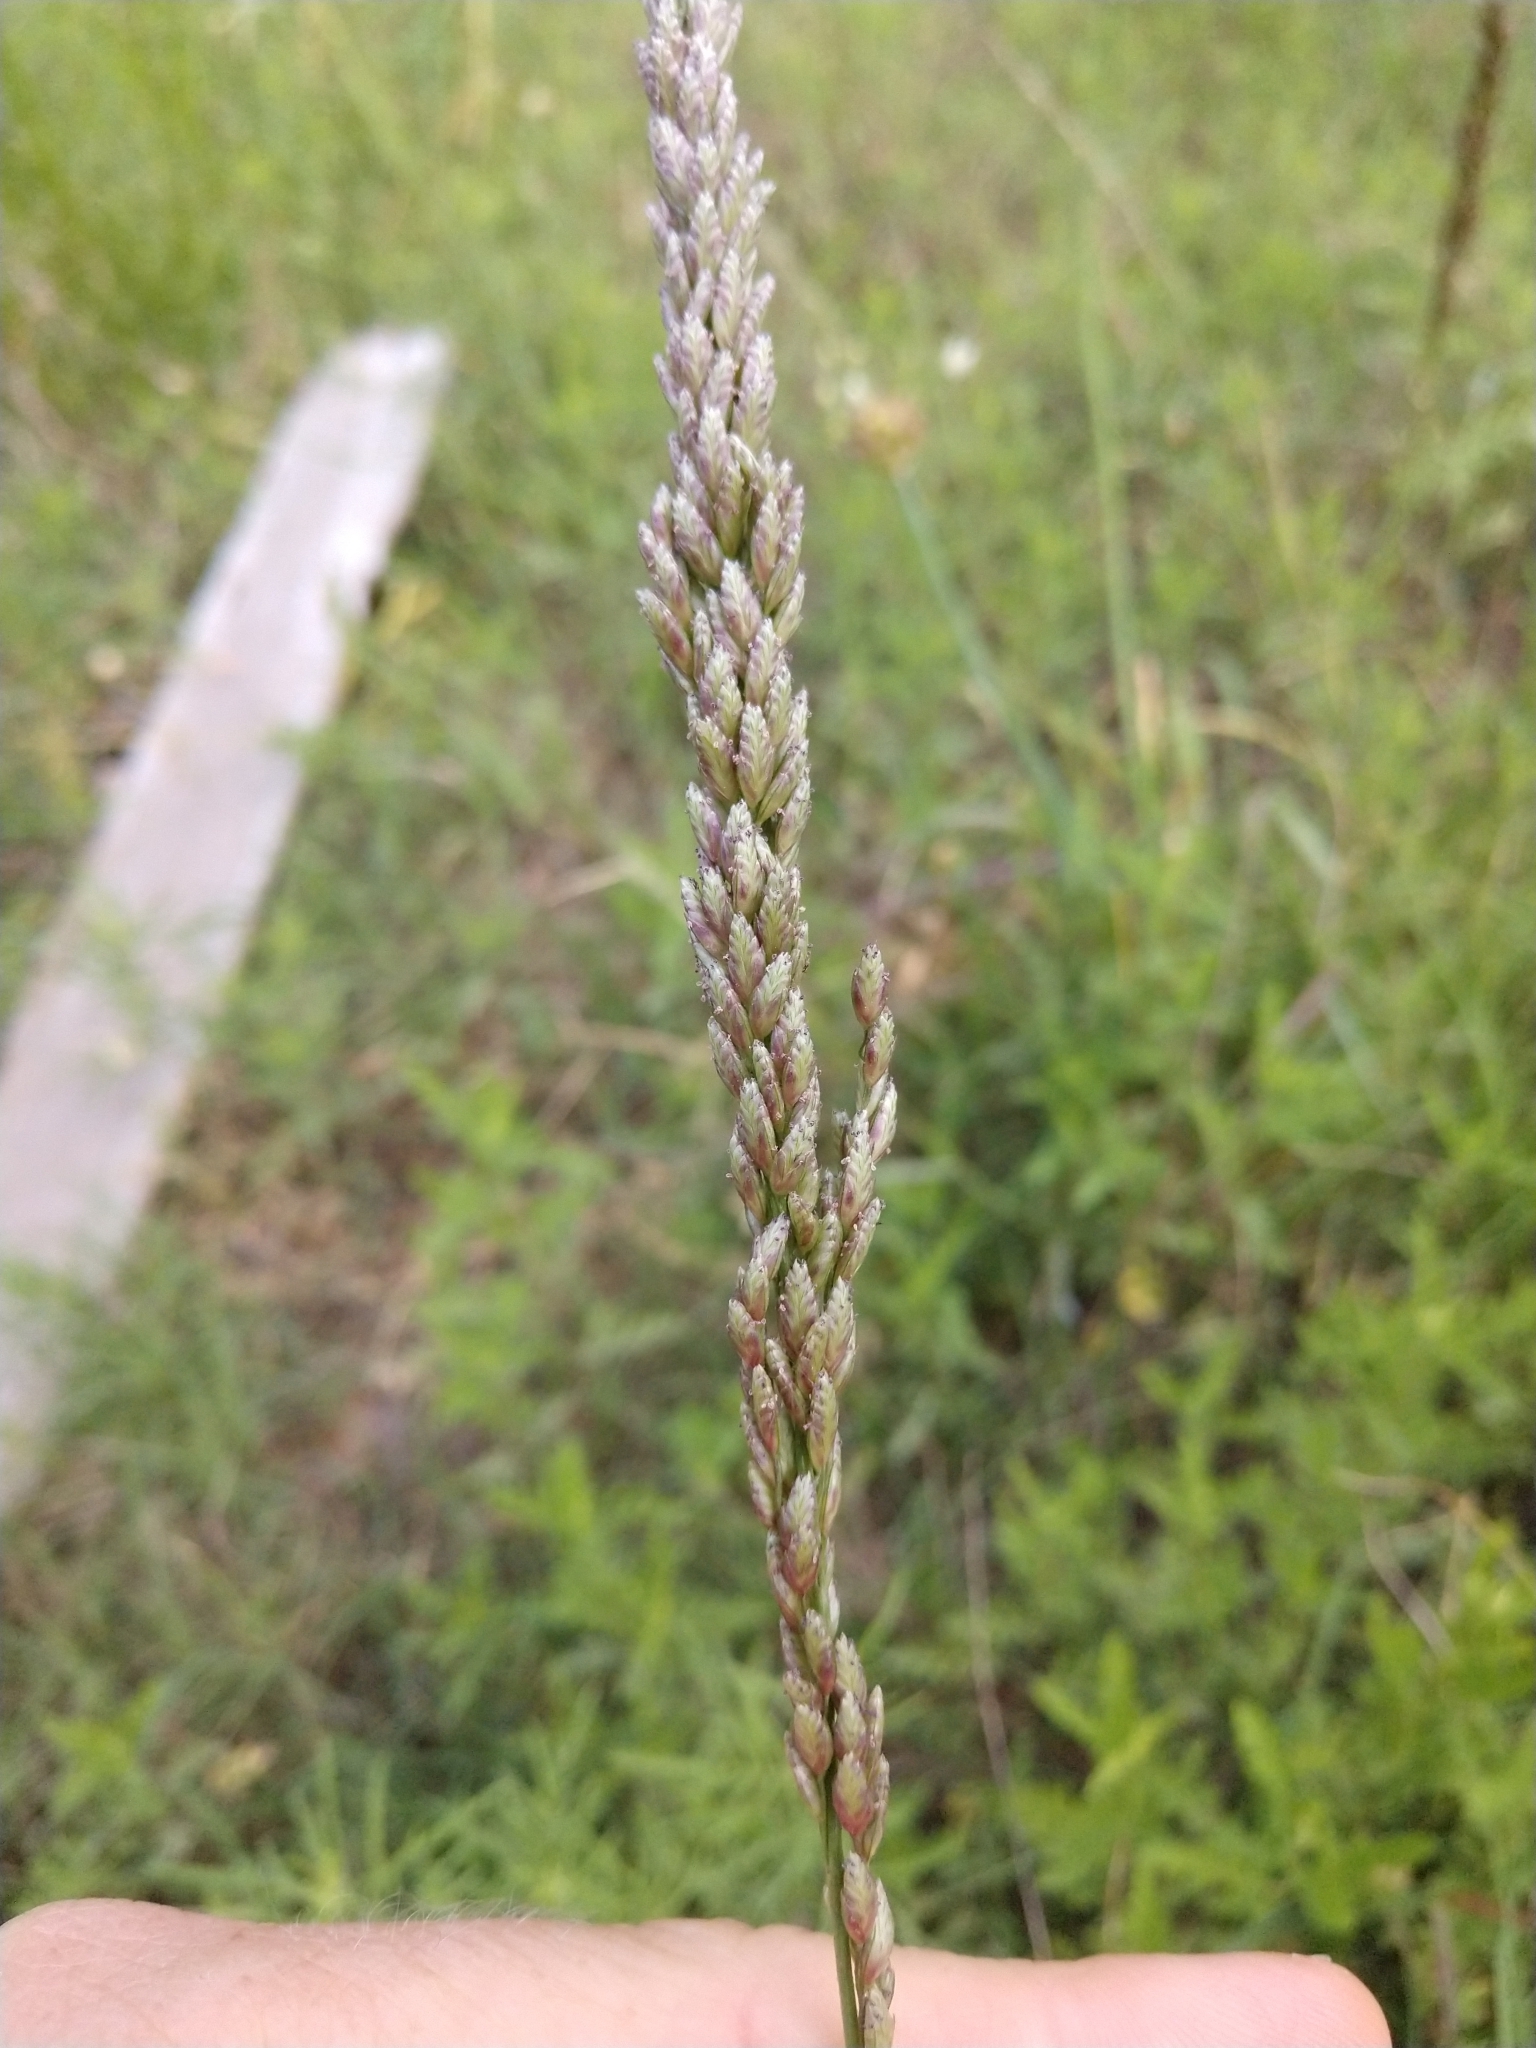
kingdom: Plantae
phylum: Tracheophyta
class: Liliopsida
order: Poales
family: Poaceae
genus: Tridens
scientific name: Tridens albescens
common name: White tridens
